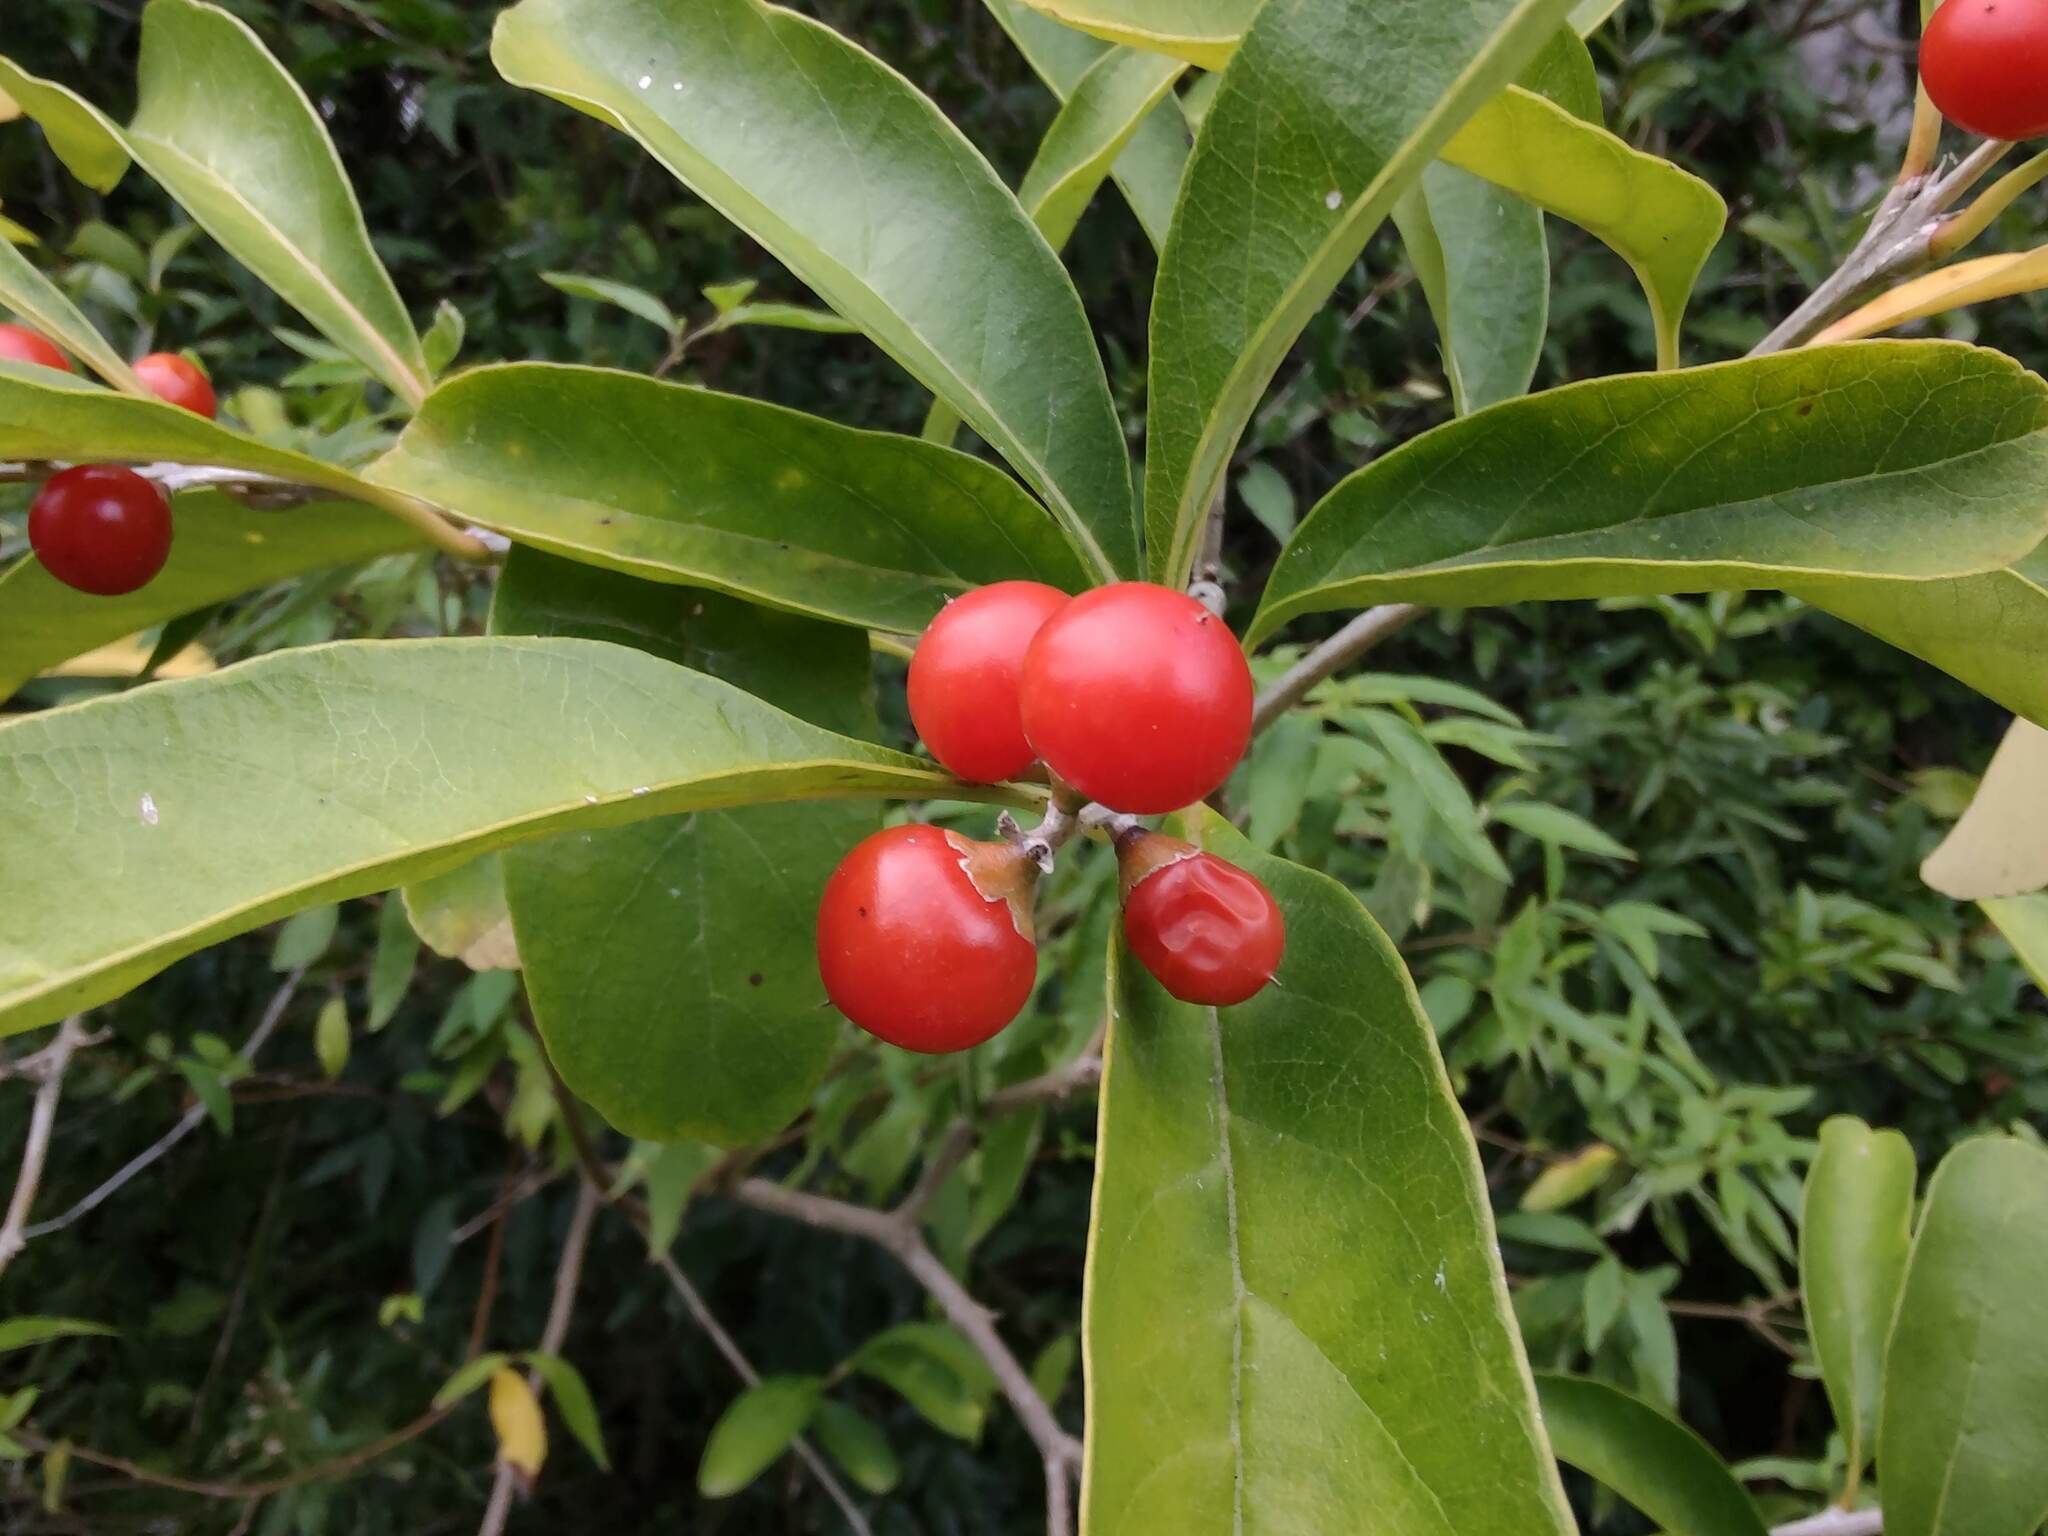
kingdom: Plantae
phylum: Tracheophyta
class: Magnoliopsida
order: Lamiales
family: Verbenaceae
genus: Citharexylum
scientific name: Citharexylum montevidense
